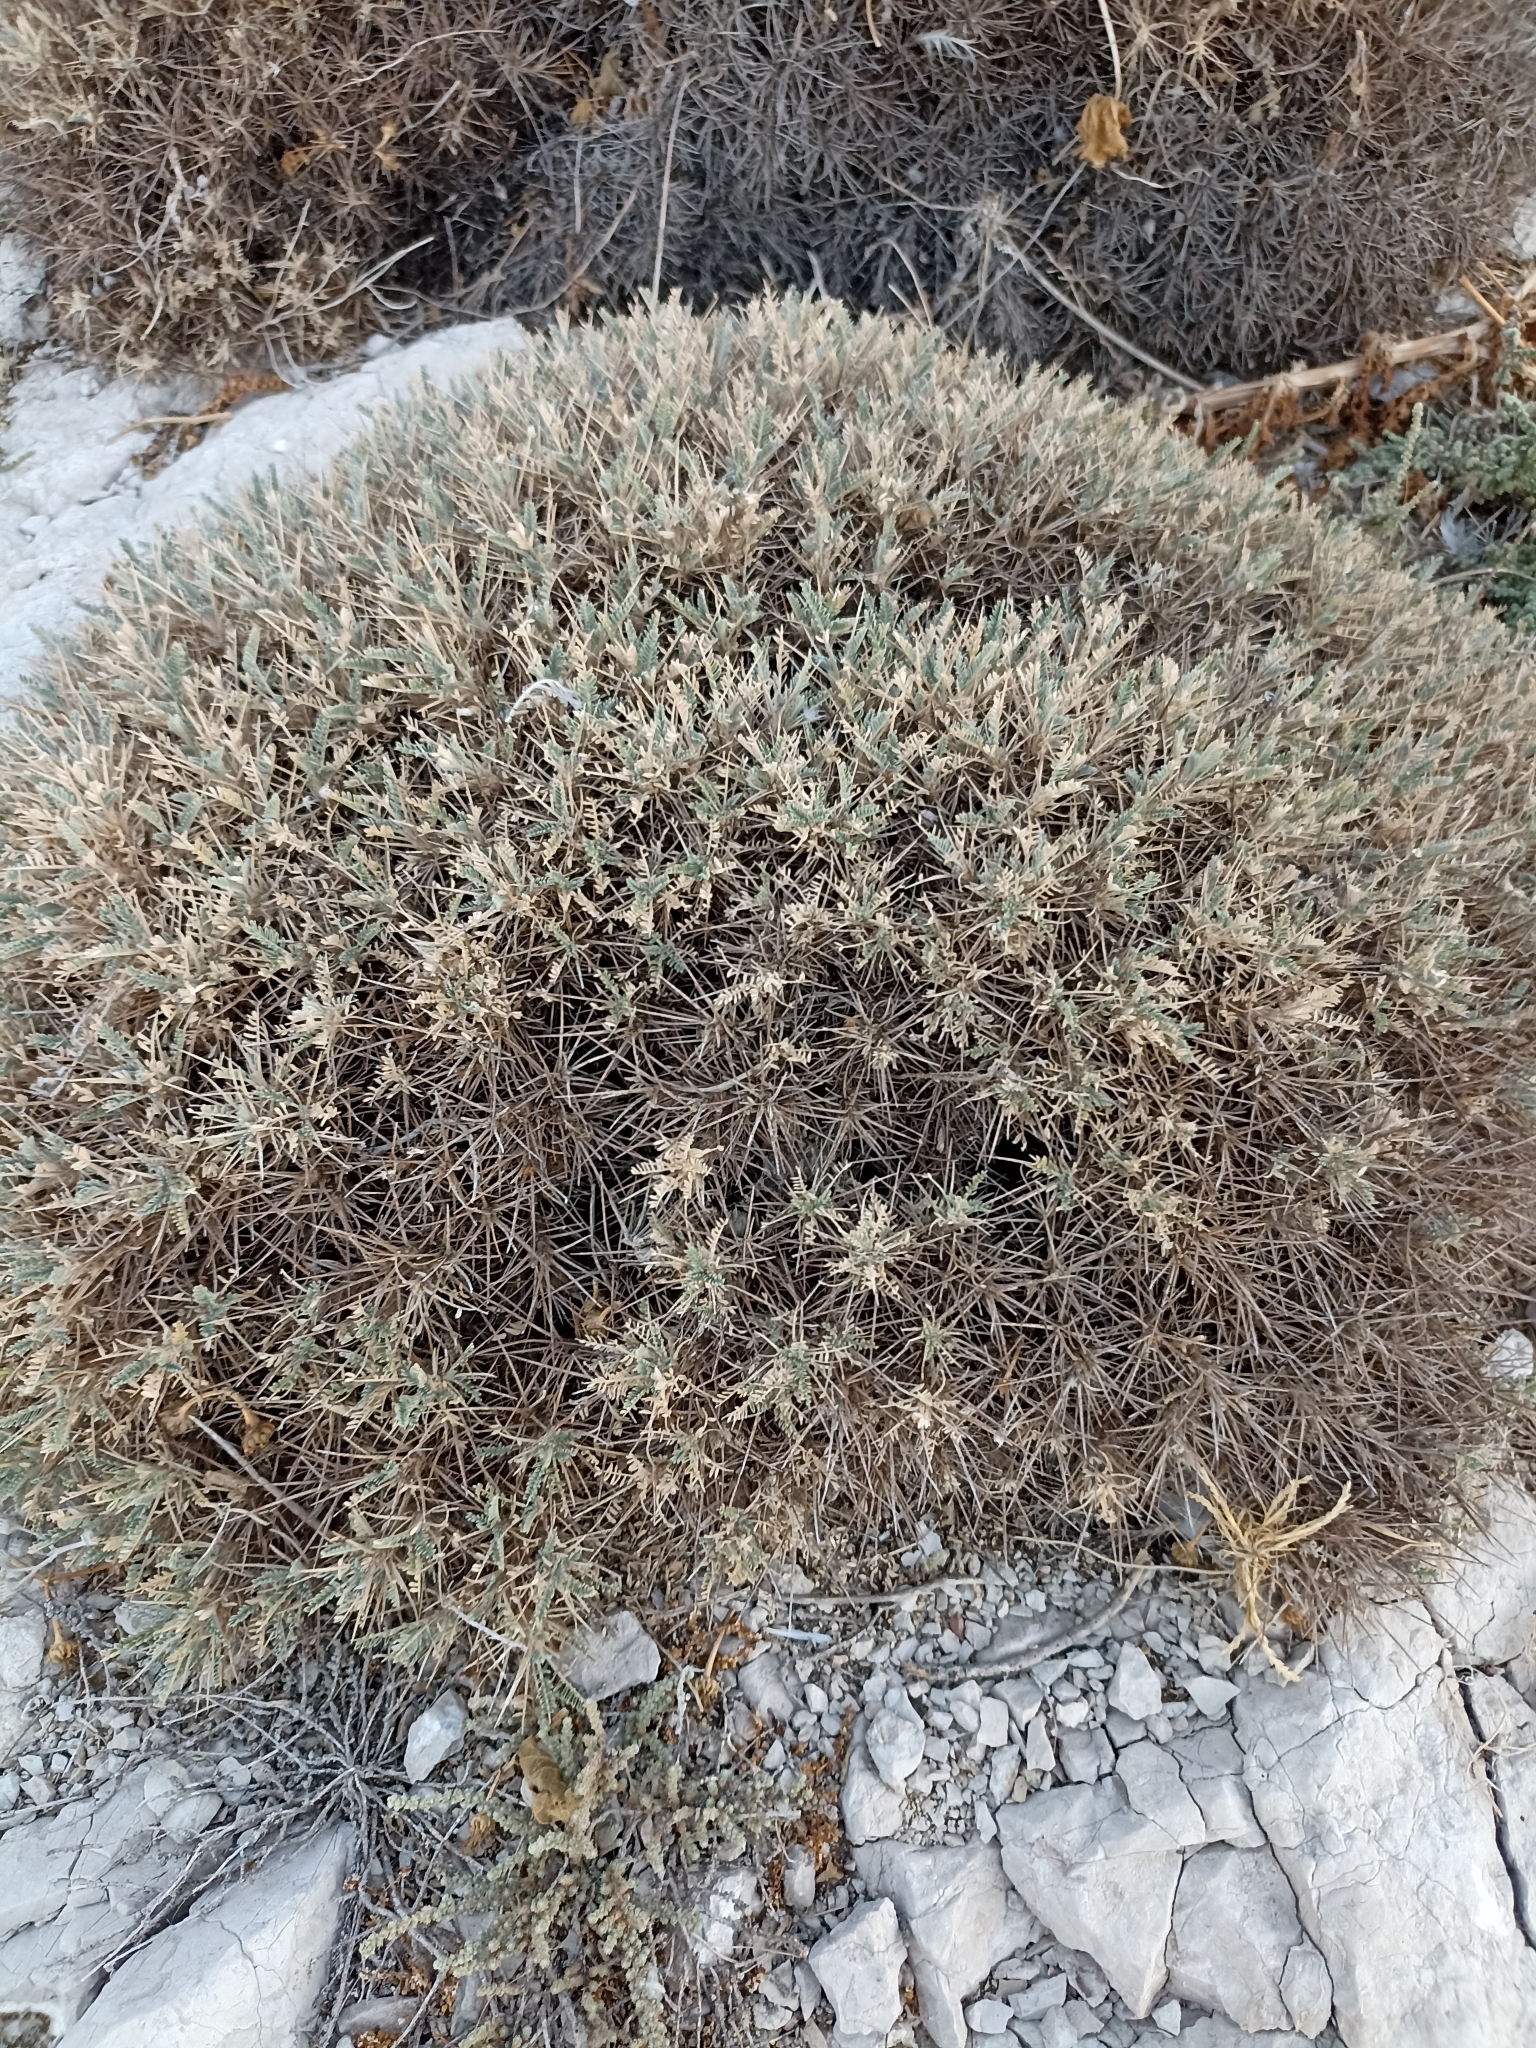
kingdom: Plantae
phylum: Tracheophyta
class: Magnoliopsida
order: Fabales
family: Fabaceae
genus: Astragalus
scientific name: Astragalus tragacantha
